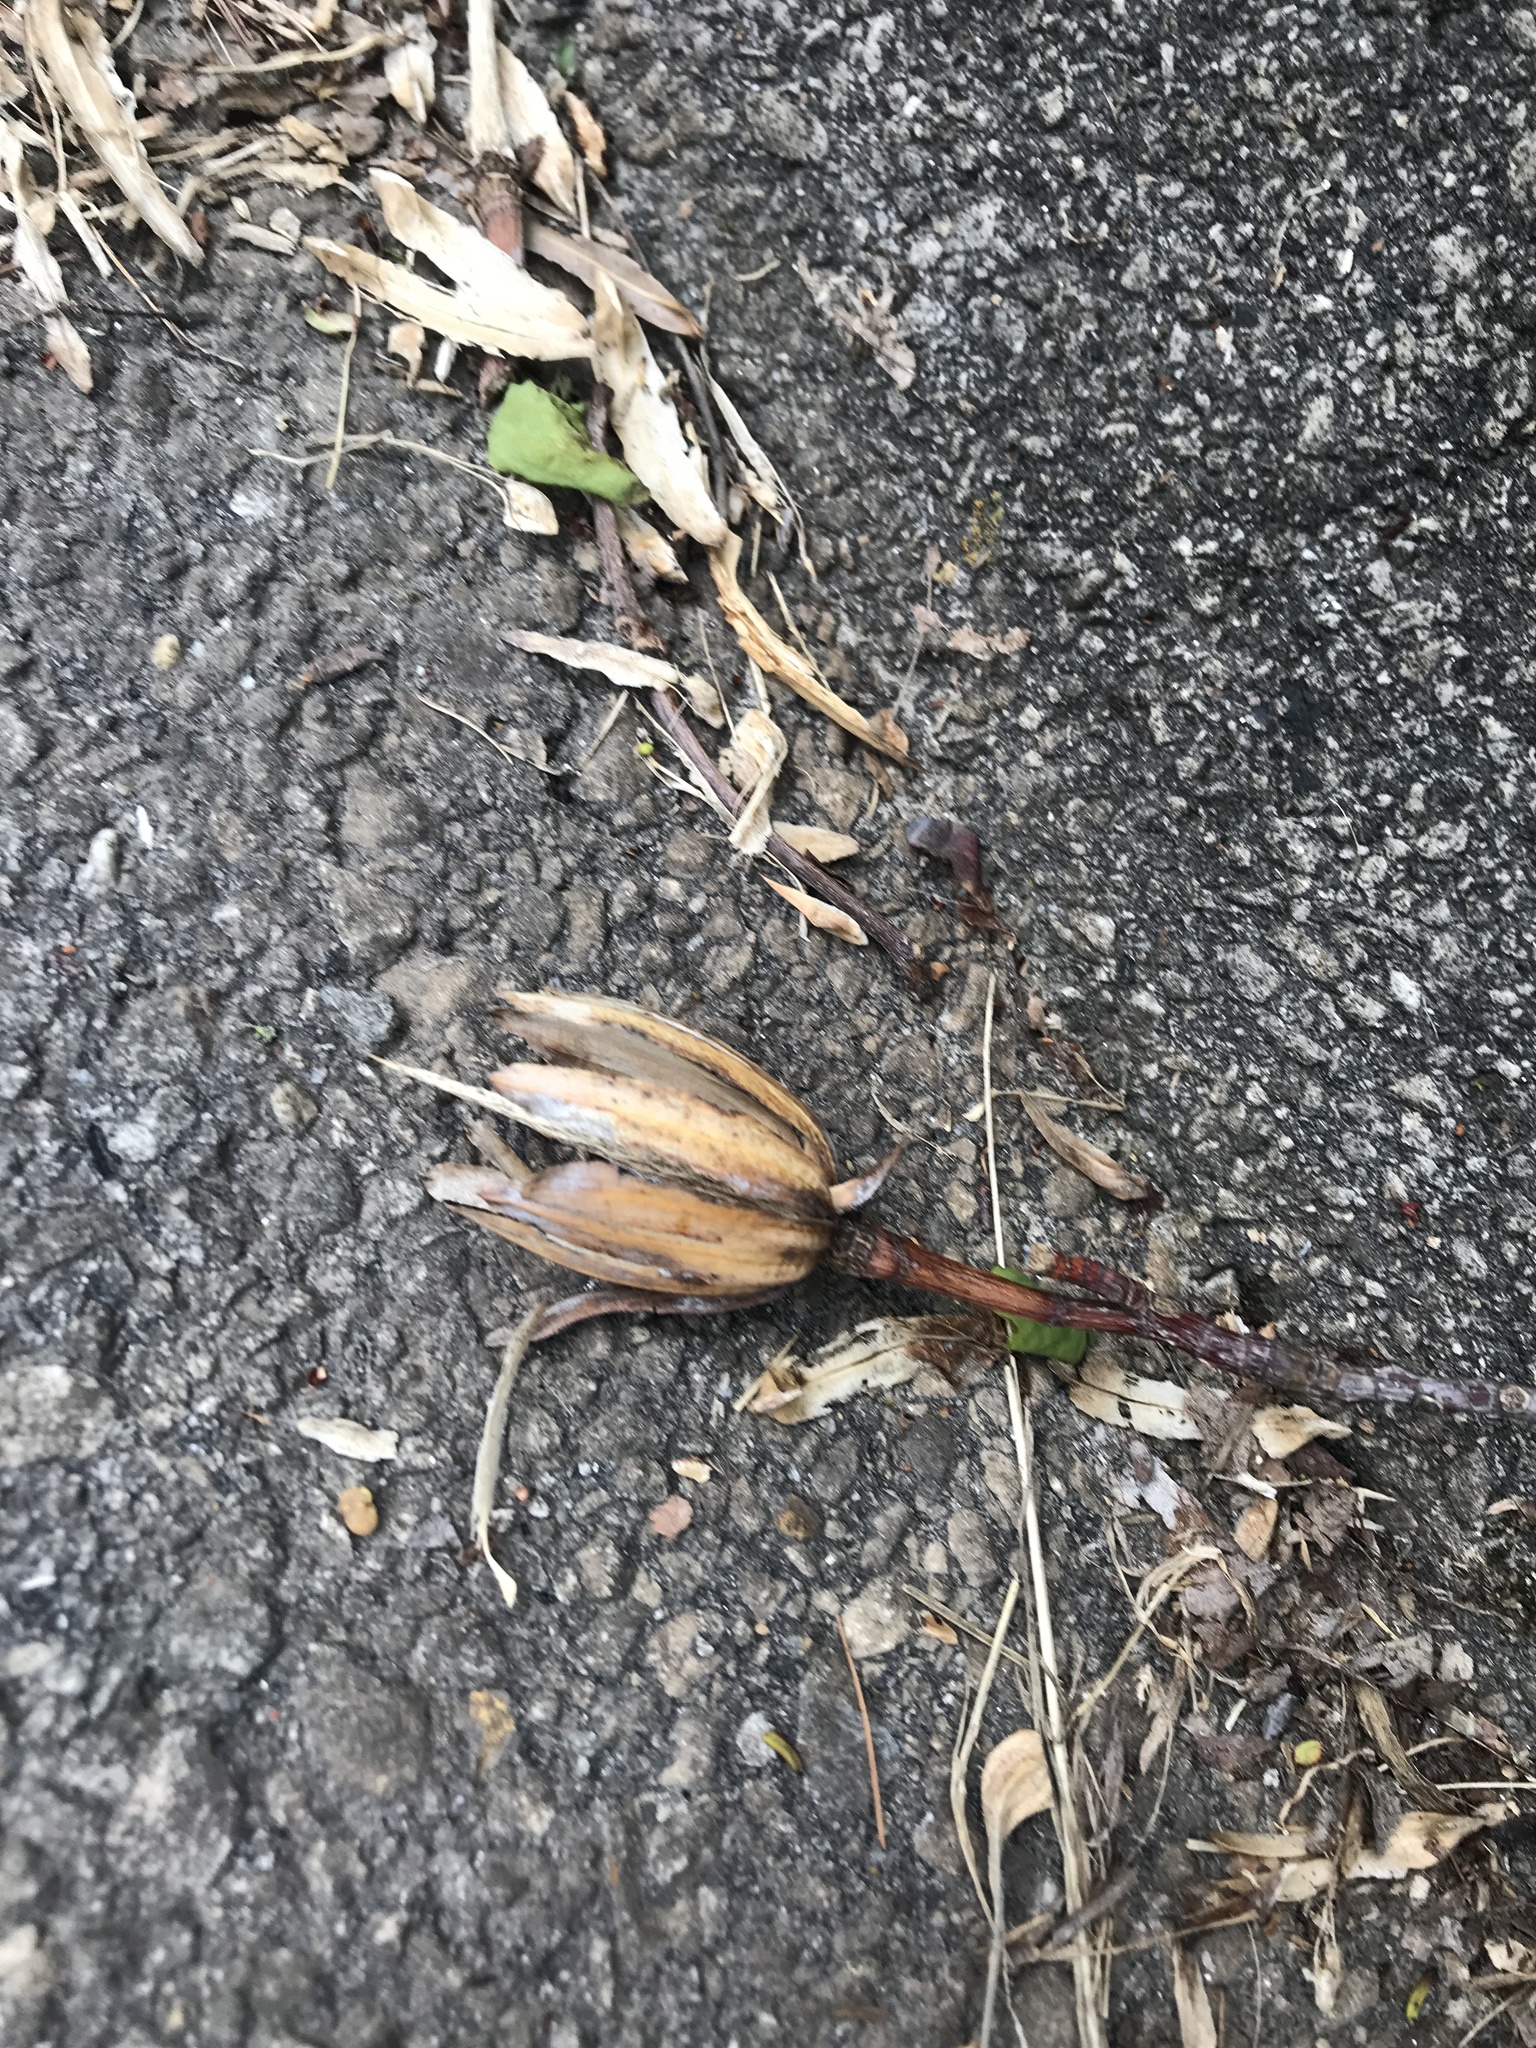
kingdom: Plantae
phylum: Tracheophyta
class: Magnoliopsida
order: Magnoliales
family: Magnoliaceae
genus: Liriodendron
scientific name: Liriodendron tulipifera
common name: Tulip tree
